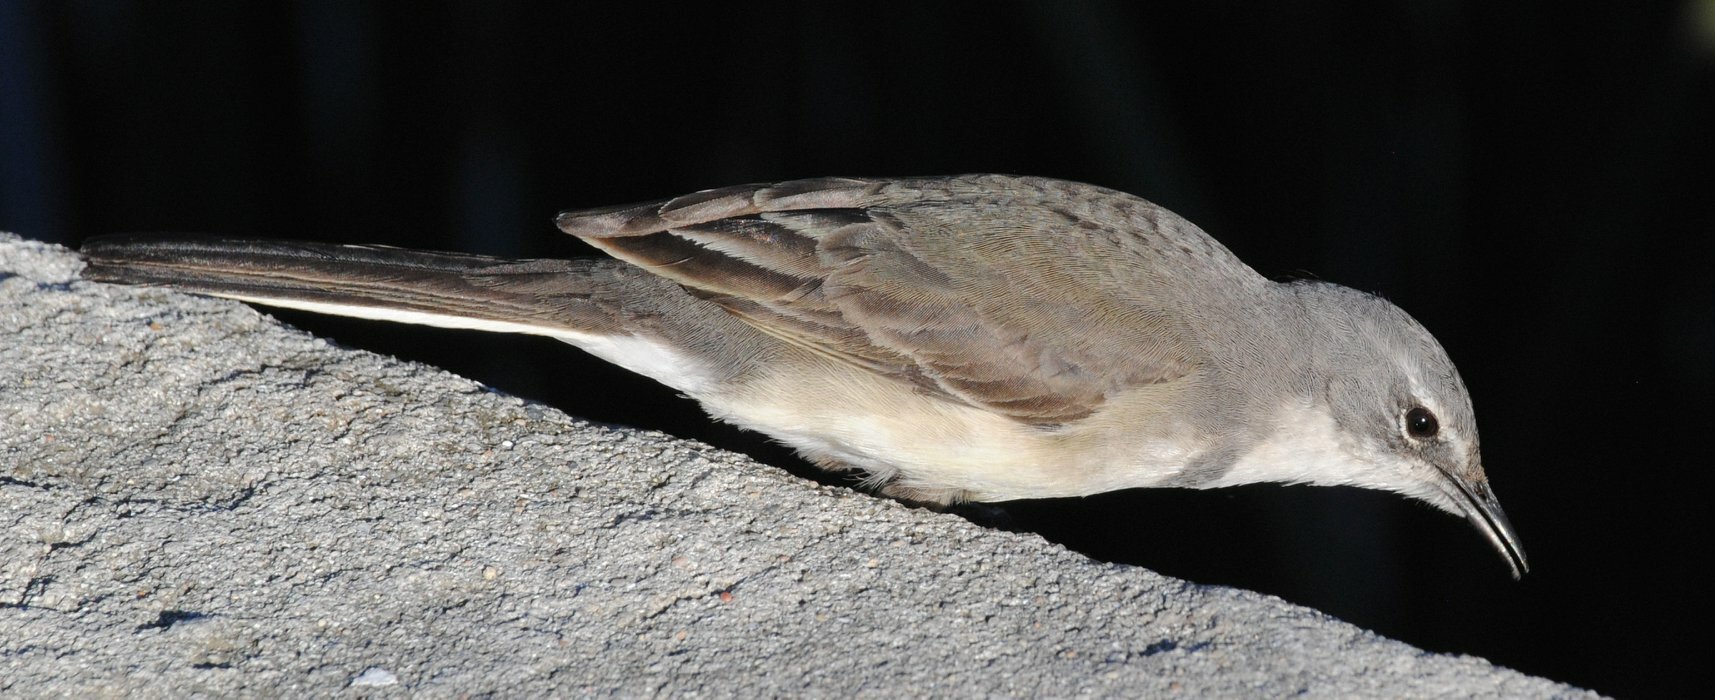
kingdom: Animalia
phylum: Chordata
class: Aves
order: Passeriformes
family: Motacillidae
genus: Motacilla
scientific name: Motacilla capensis
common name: Cape wagtail
